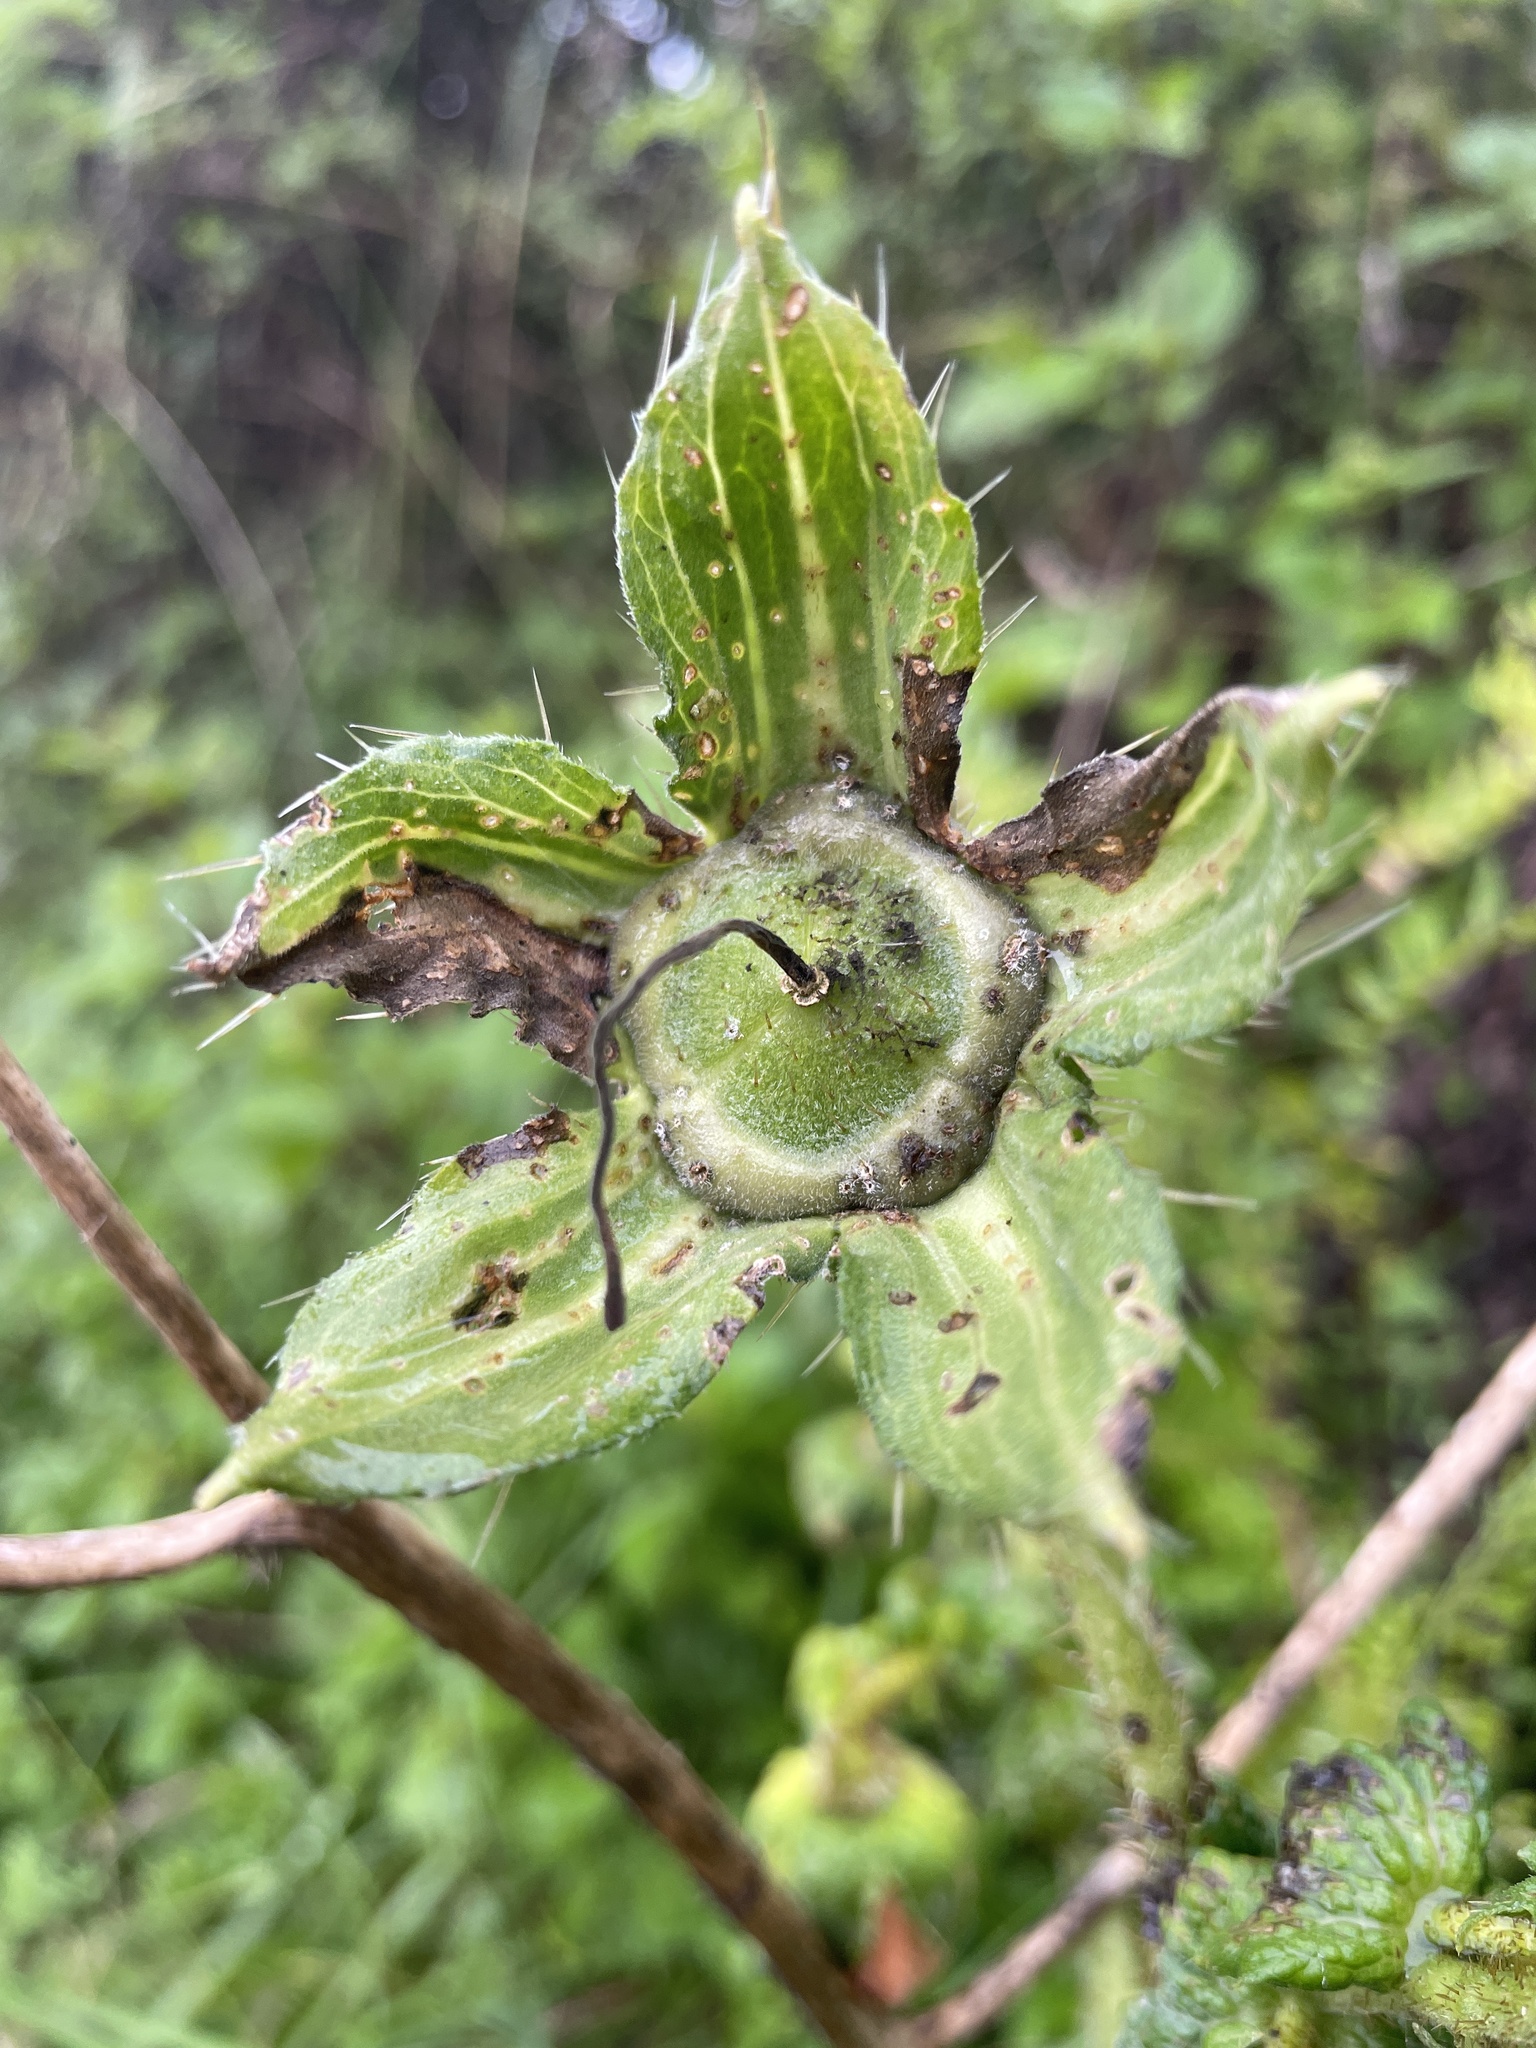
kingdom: Plantae
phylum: Tracheophyta
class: Magnoliopsida
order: Cornales
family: Loasaceae
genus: Nasa
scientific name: Nasa macrophylla
